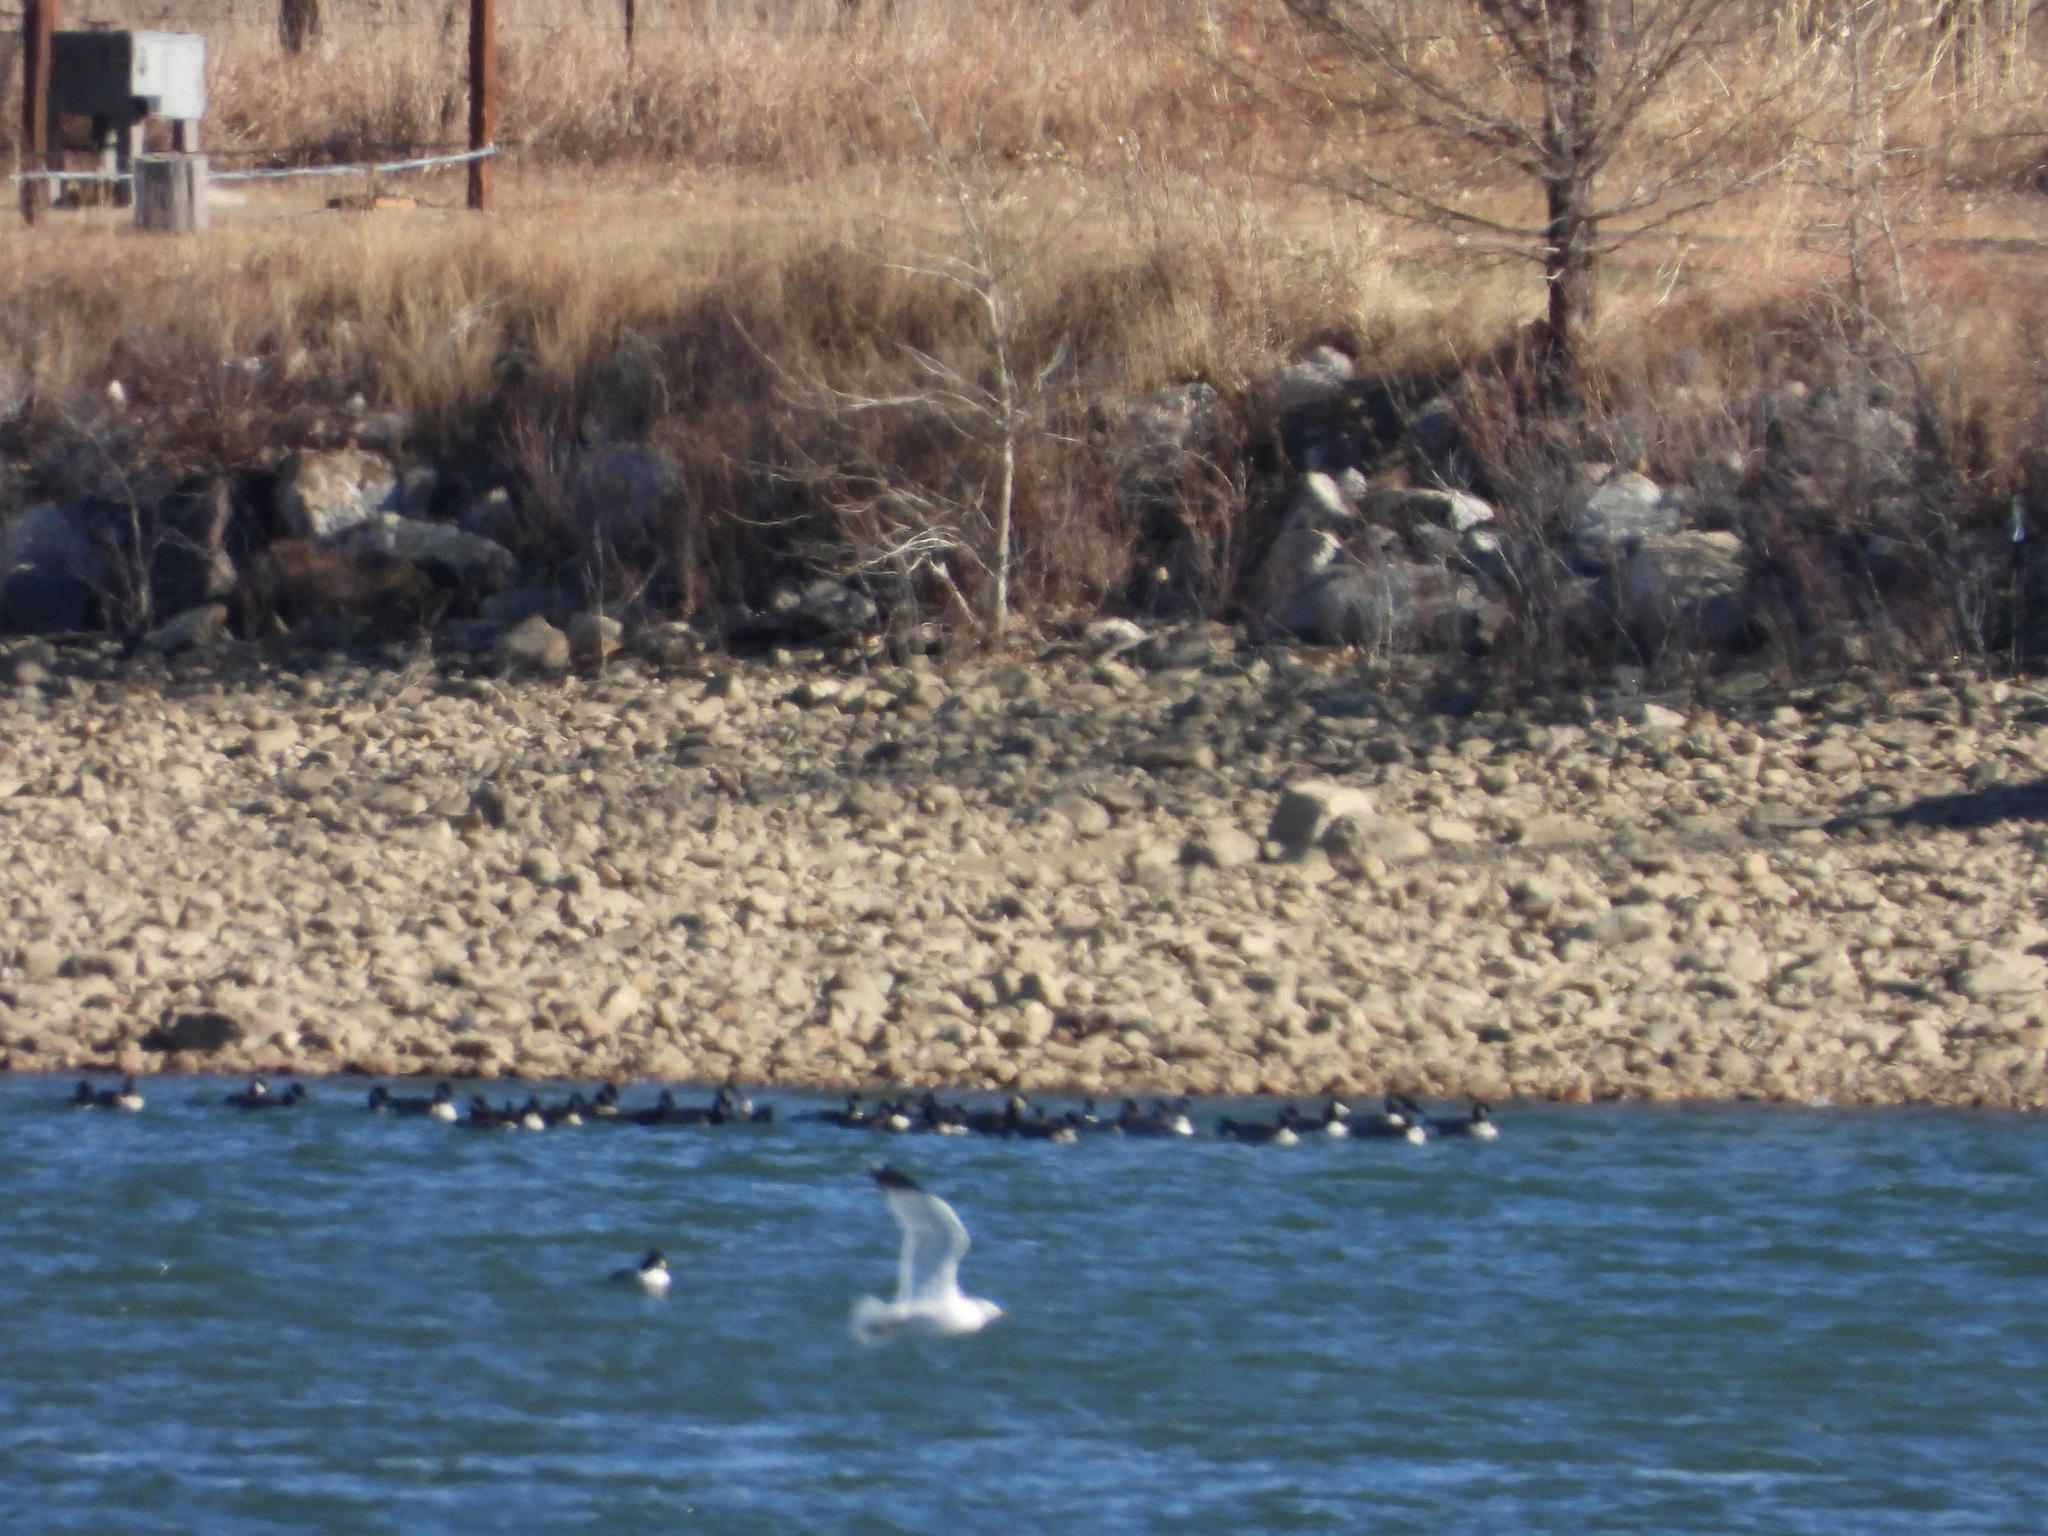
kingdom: Animalia
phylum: Chordata
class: Aves
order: Anseriformes
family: Anatidae
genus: Branta
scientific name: Branta hutchinsii
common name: Cackling goose
